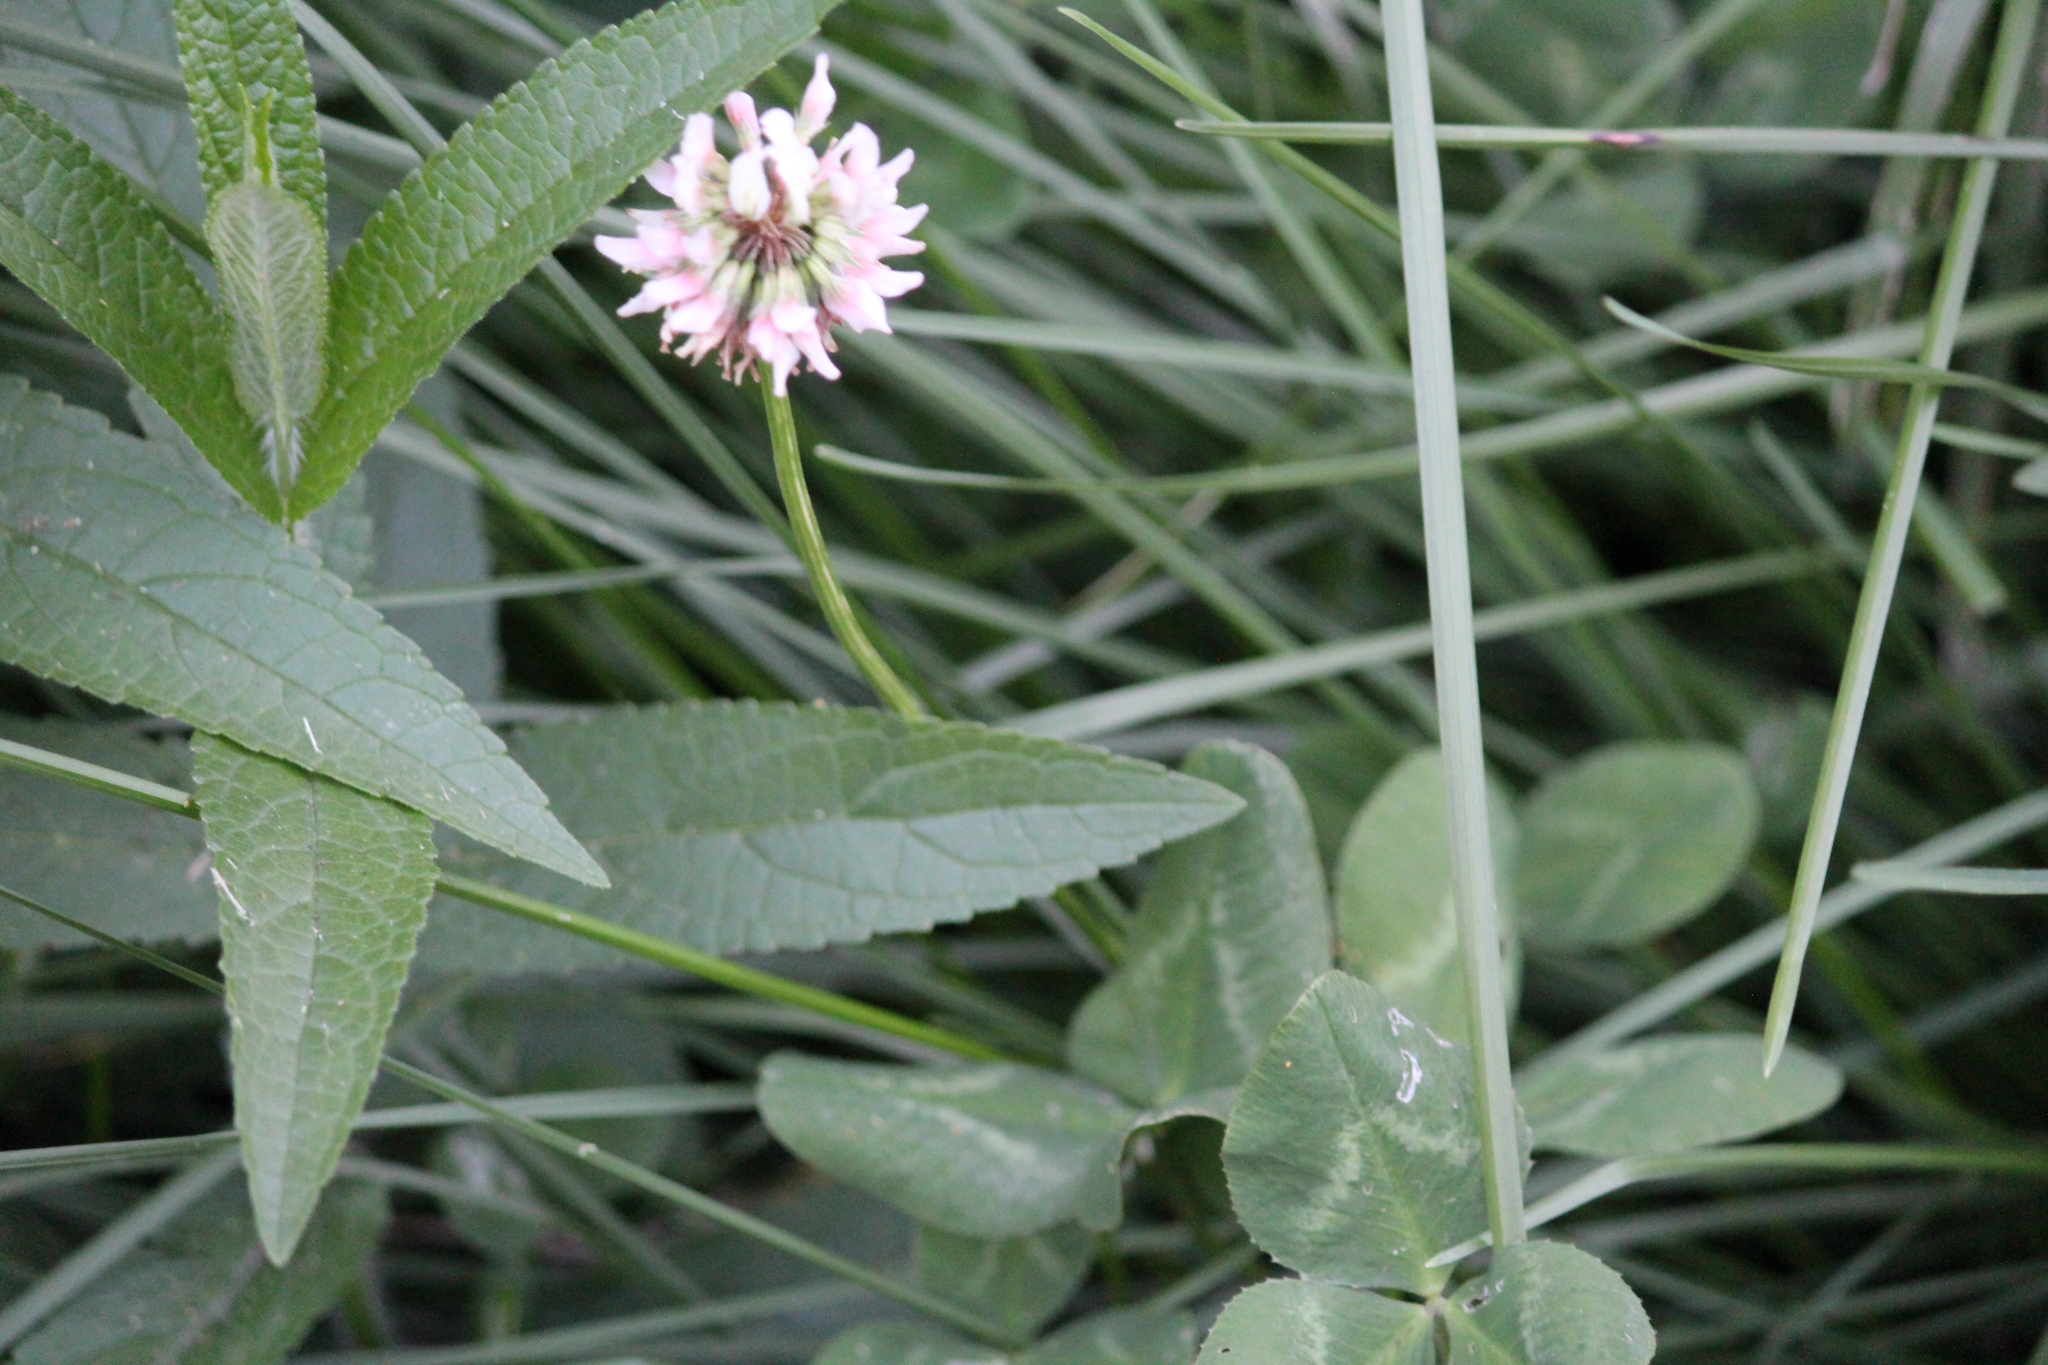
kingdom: Plantae
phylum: Tracheophyta
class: Magnoliopsida
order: Fabales
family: Fabaceae
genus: Trifolium
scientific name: Trifolium repens
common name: White clover
